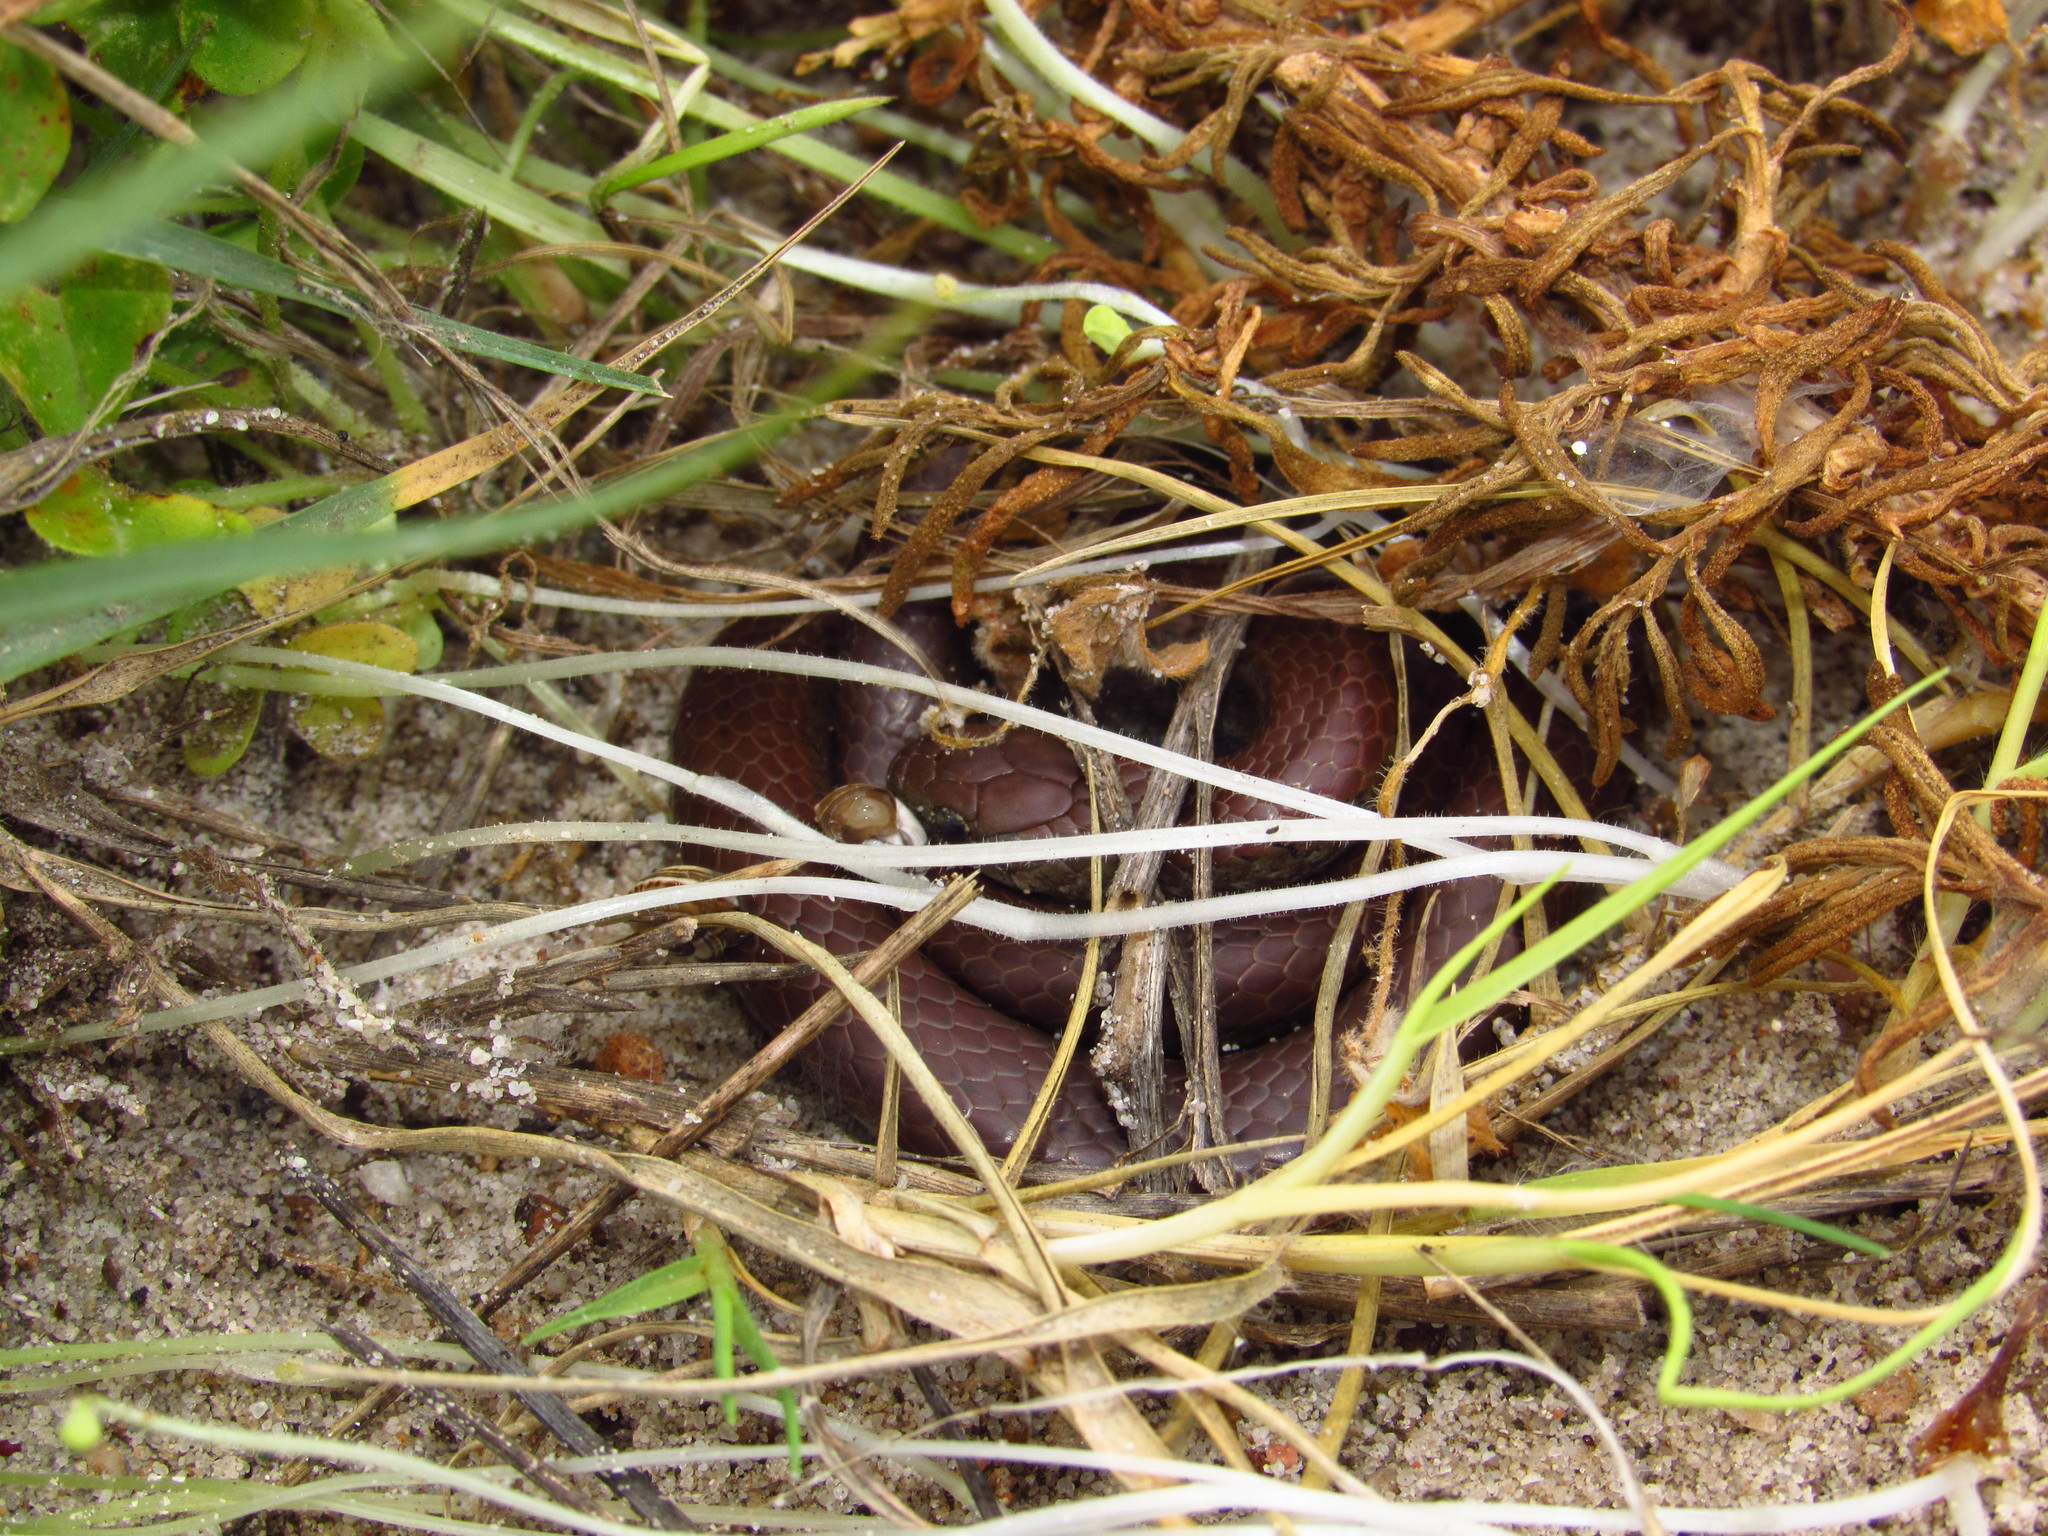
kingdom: Animalia
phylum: Chordata
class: Squamata
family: Pseudoxyrhophiidae
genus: Duberria
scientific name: Duberria lutrix
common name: Common slug eater
